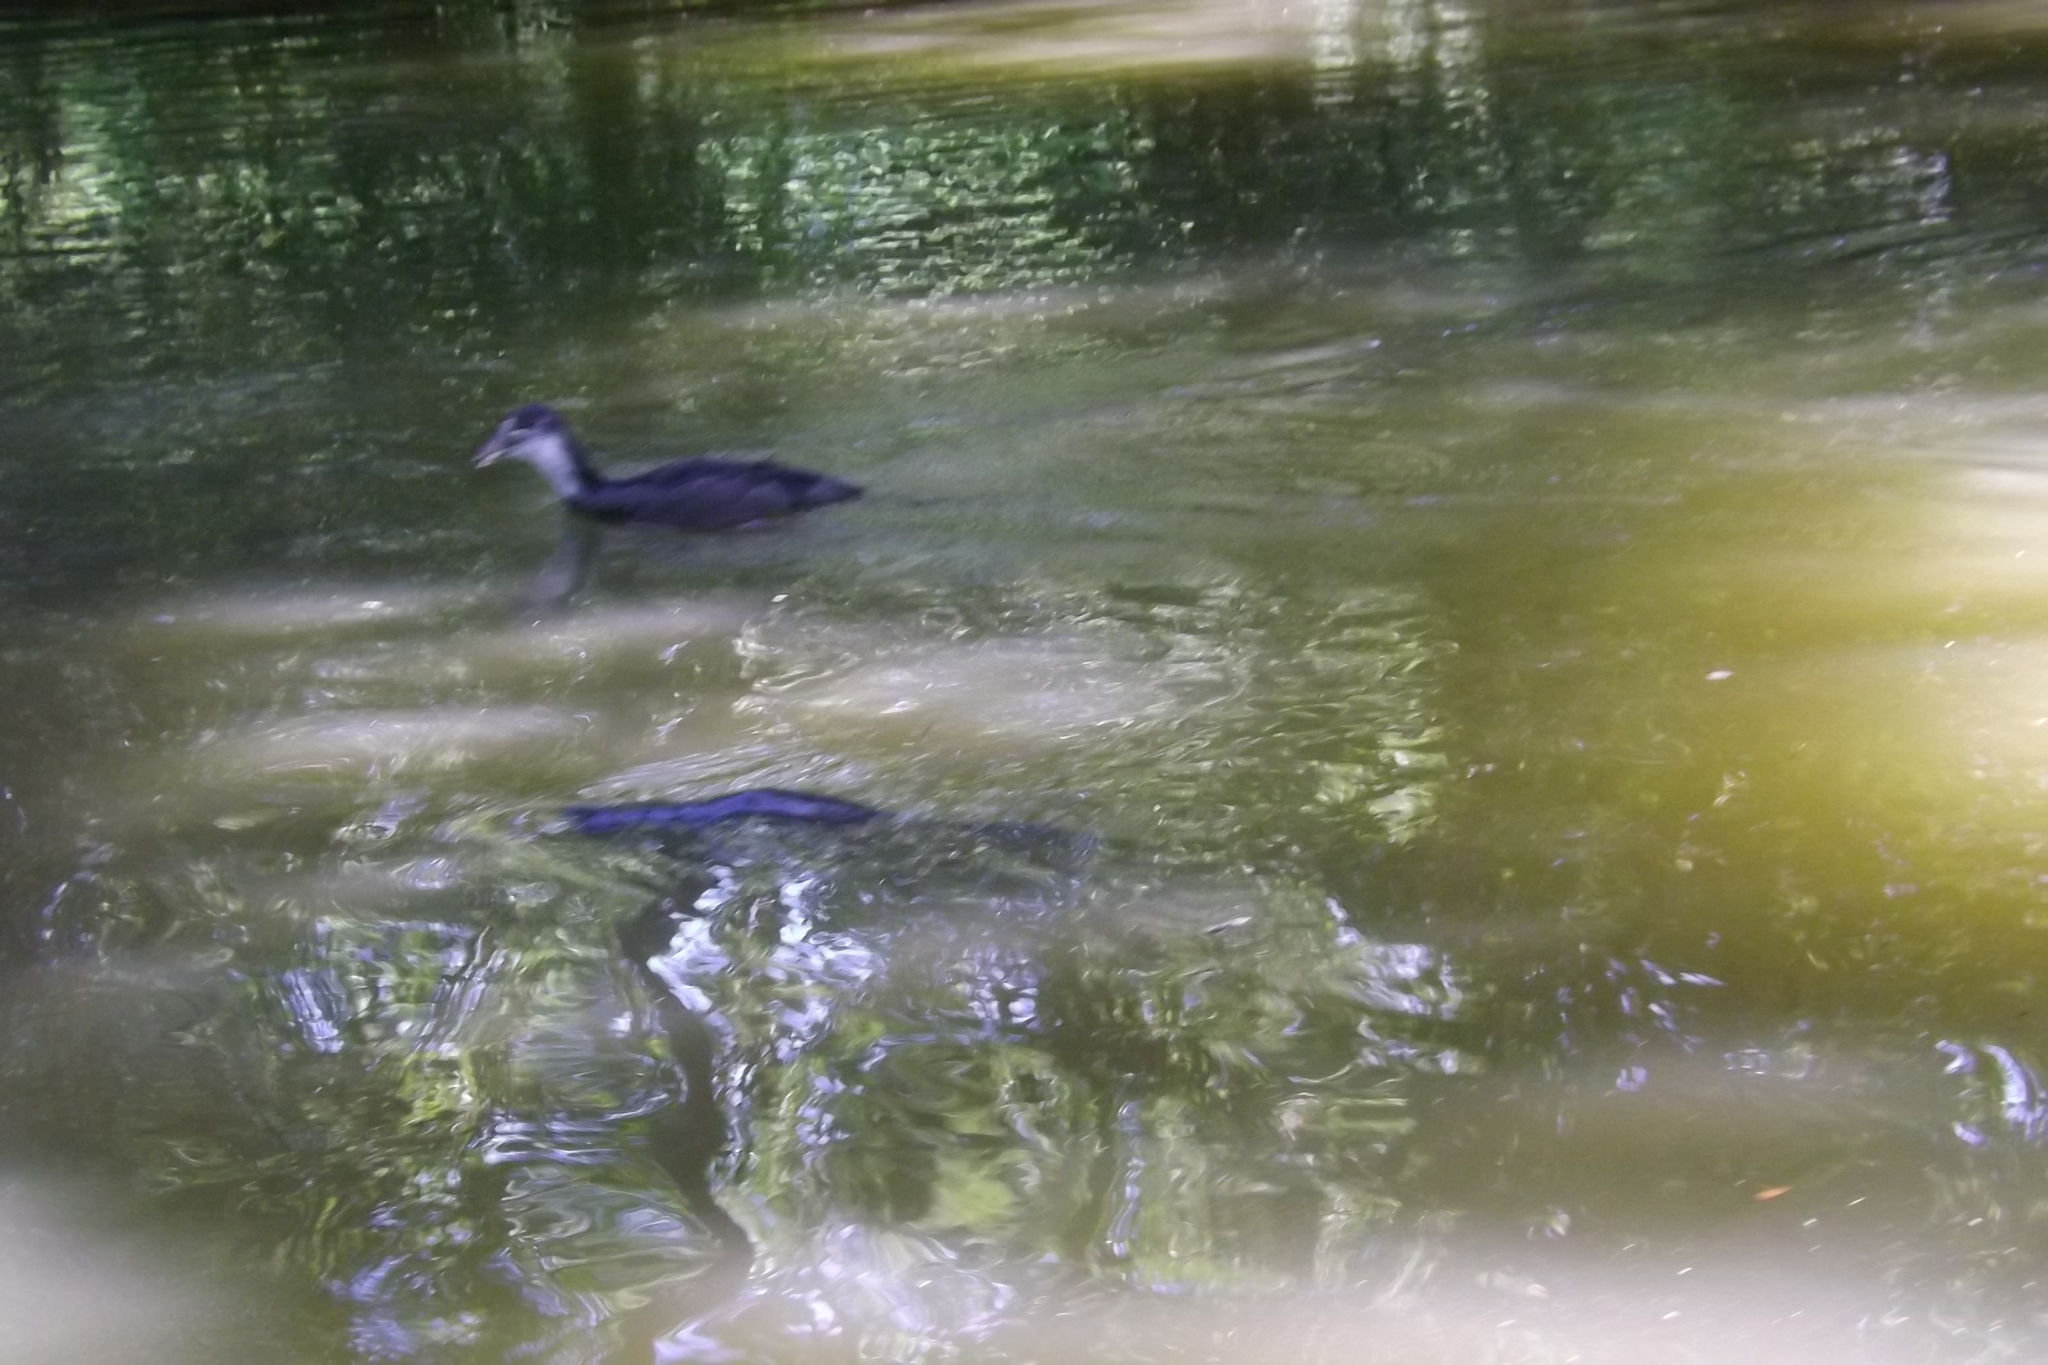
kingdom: Animalia
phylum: Chordata
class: Aves
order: Gruiformes
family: Rallidae
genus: Fulica
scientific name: Fulica atra
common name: Eurasian coot
